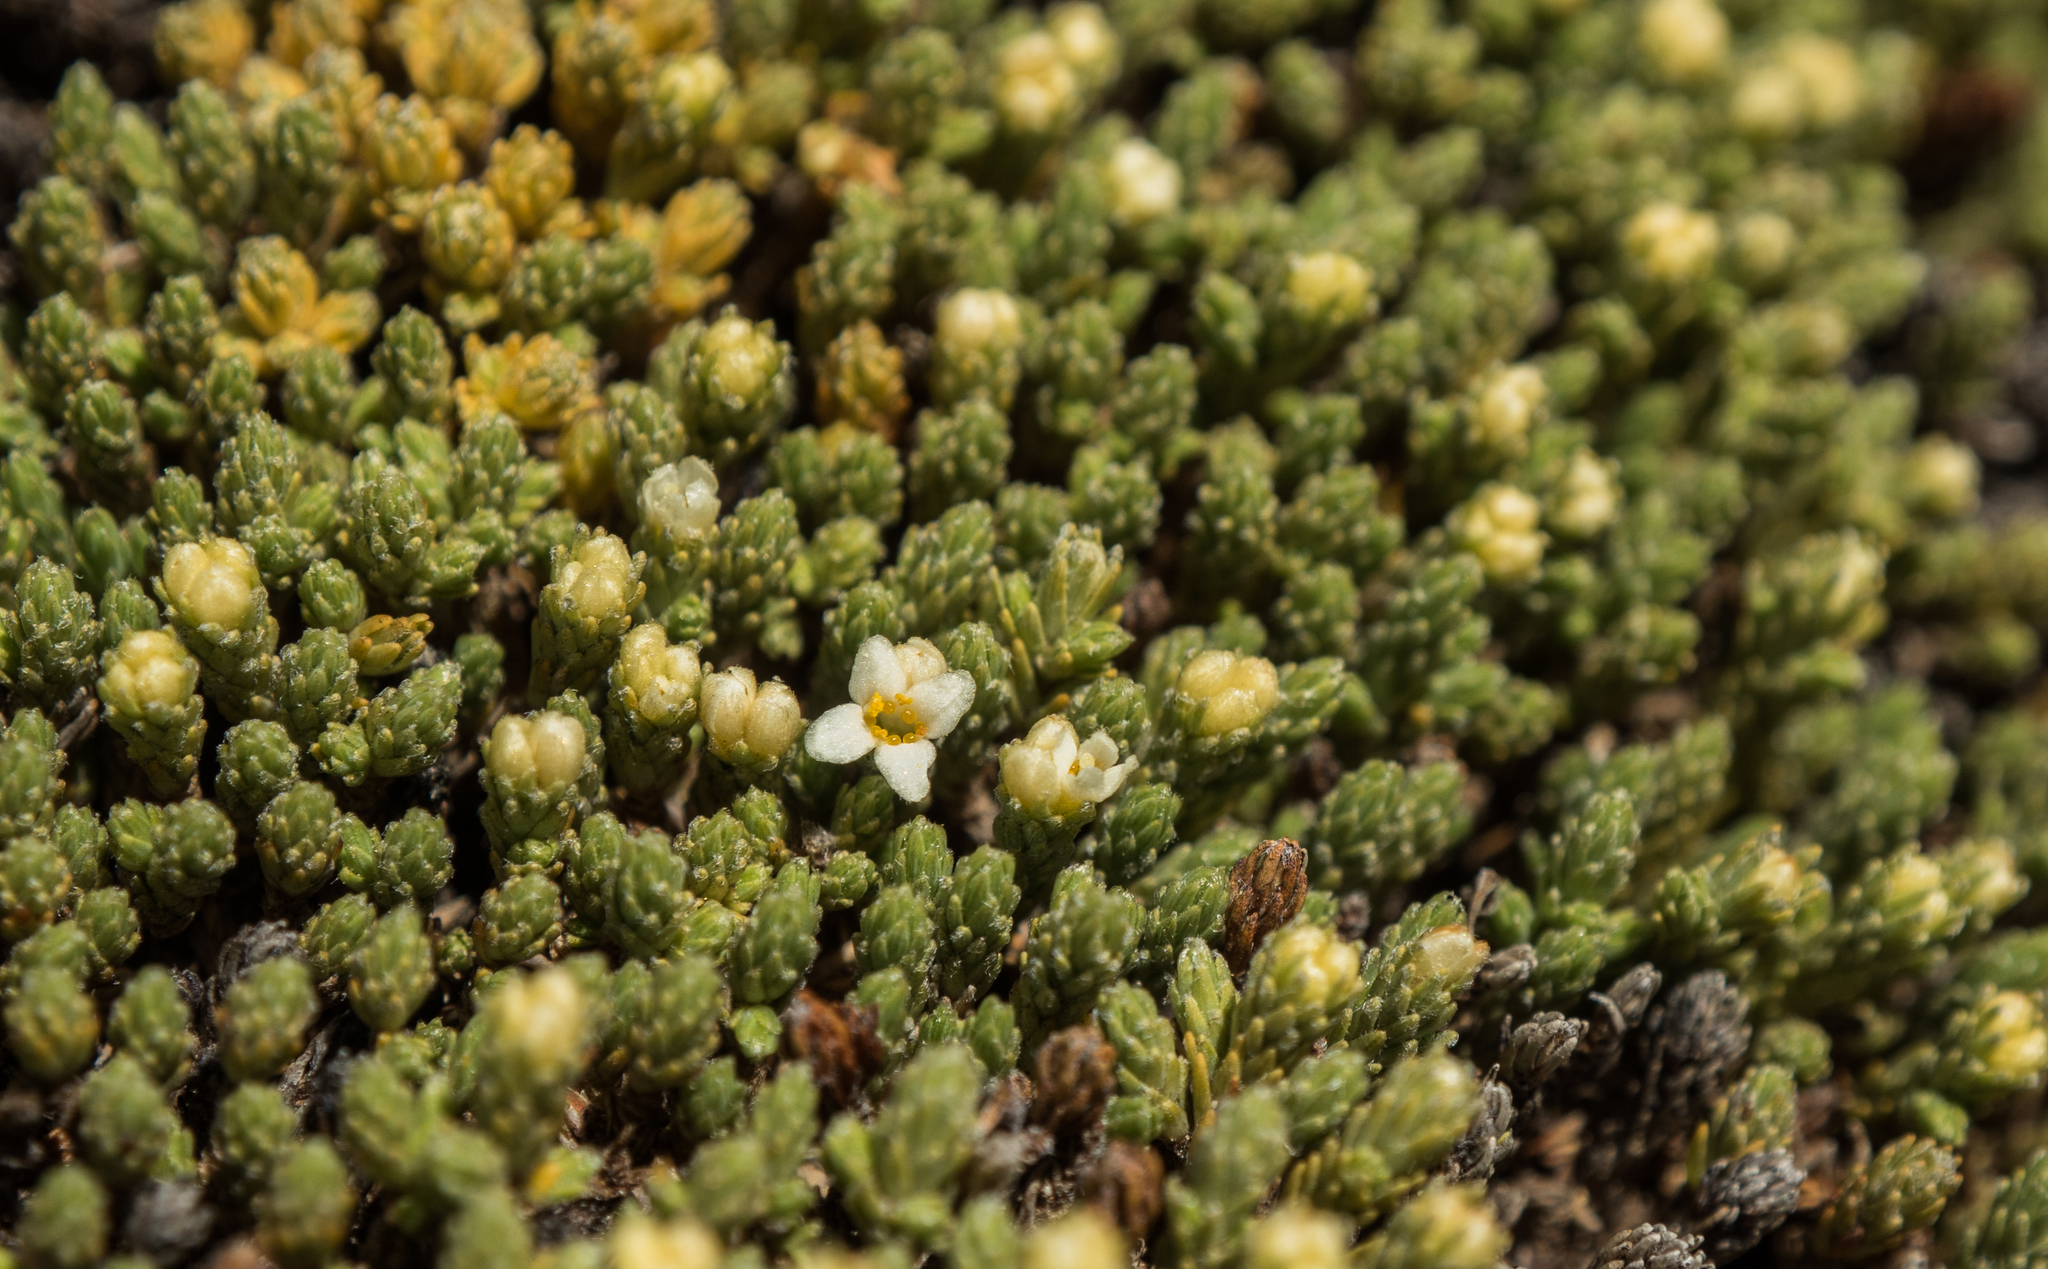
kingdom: Plantae
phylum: Tracheophyta
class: Magnoliopsida
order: Malvales
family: Thymelaeaceae
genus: Kelleria
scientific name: Kelleria croizatii
